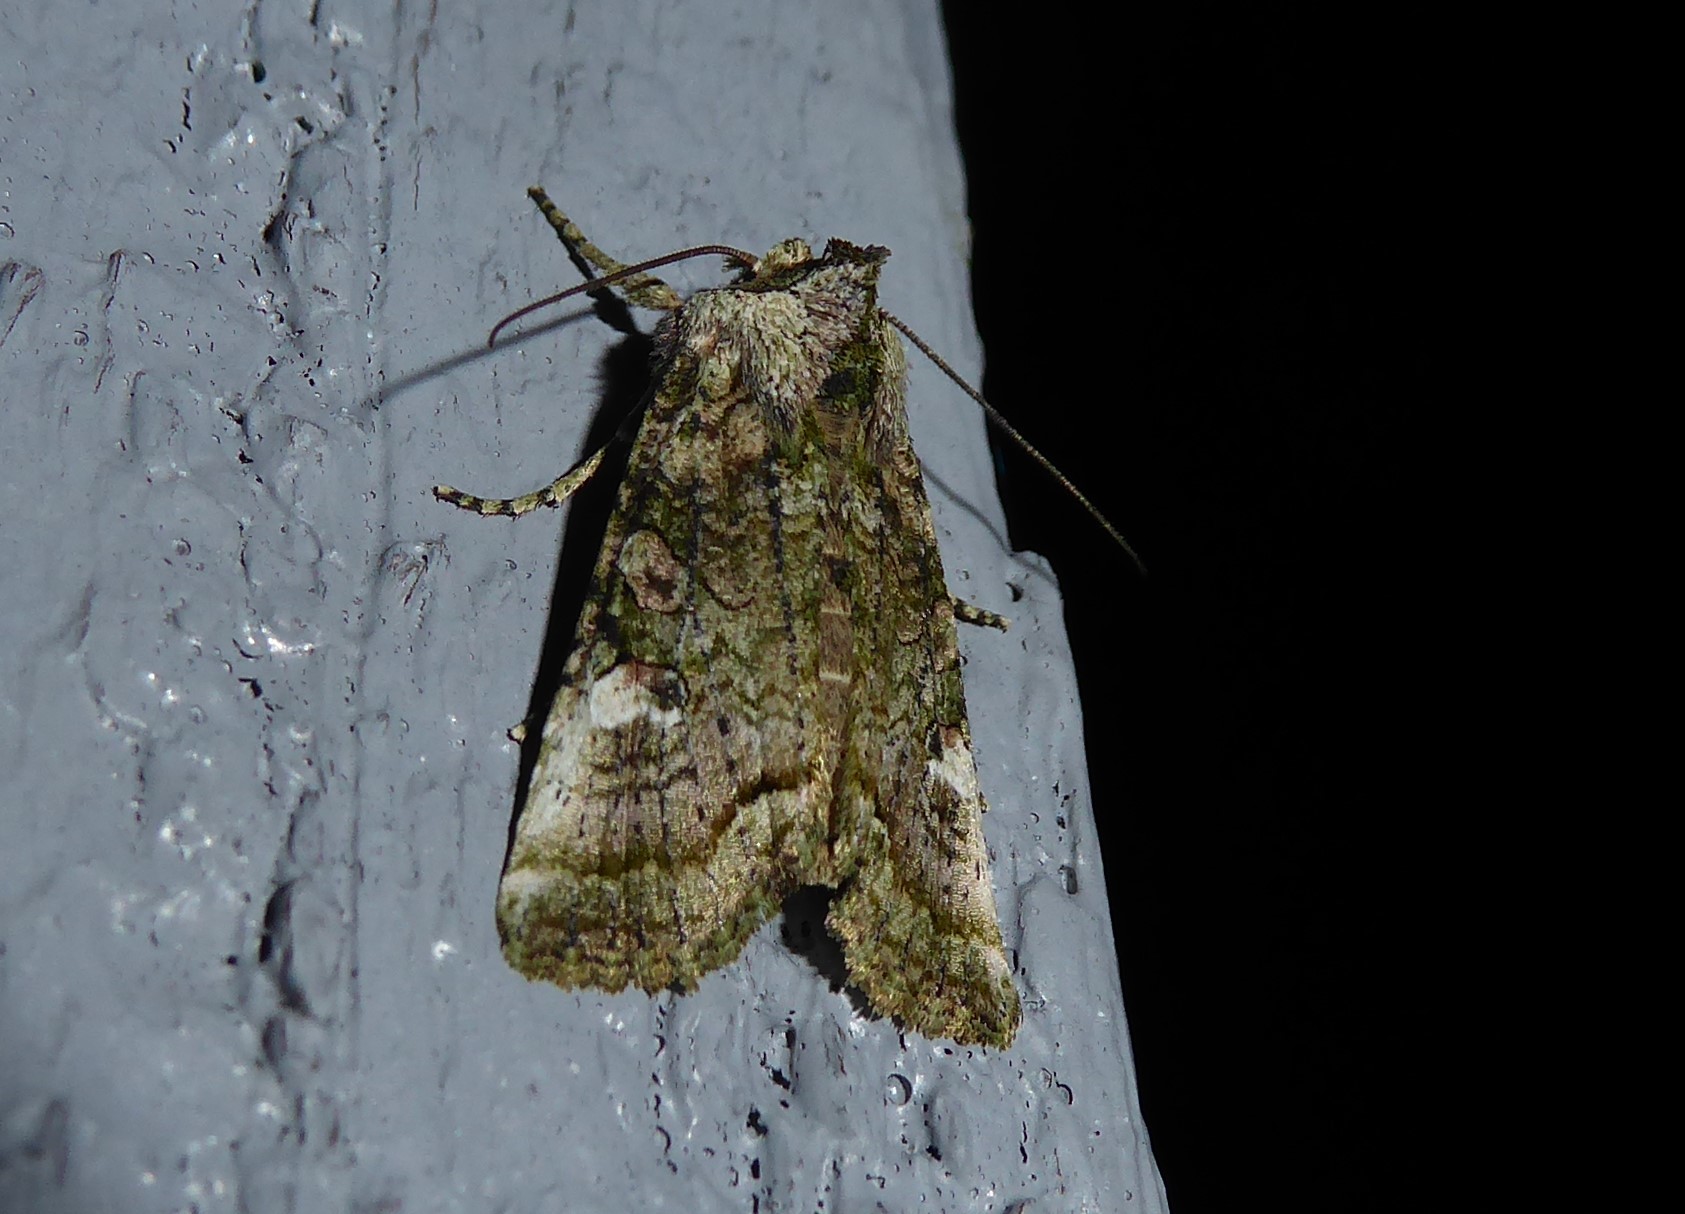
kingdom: Animalia
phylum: Arthropoda
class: Insecta
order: Lepidoptera
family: Noctuidae
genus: Meterana
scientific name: Meterana levis
